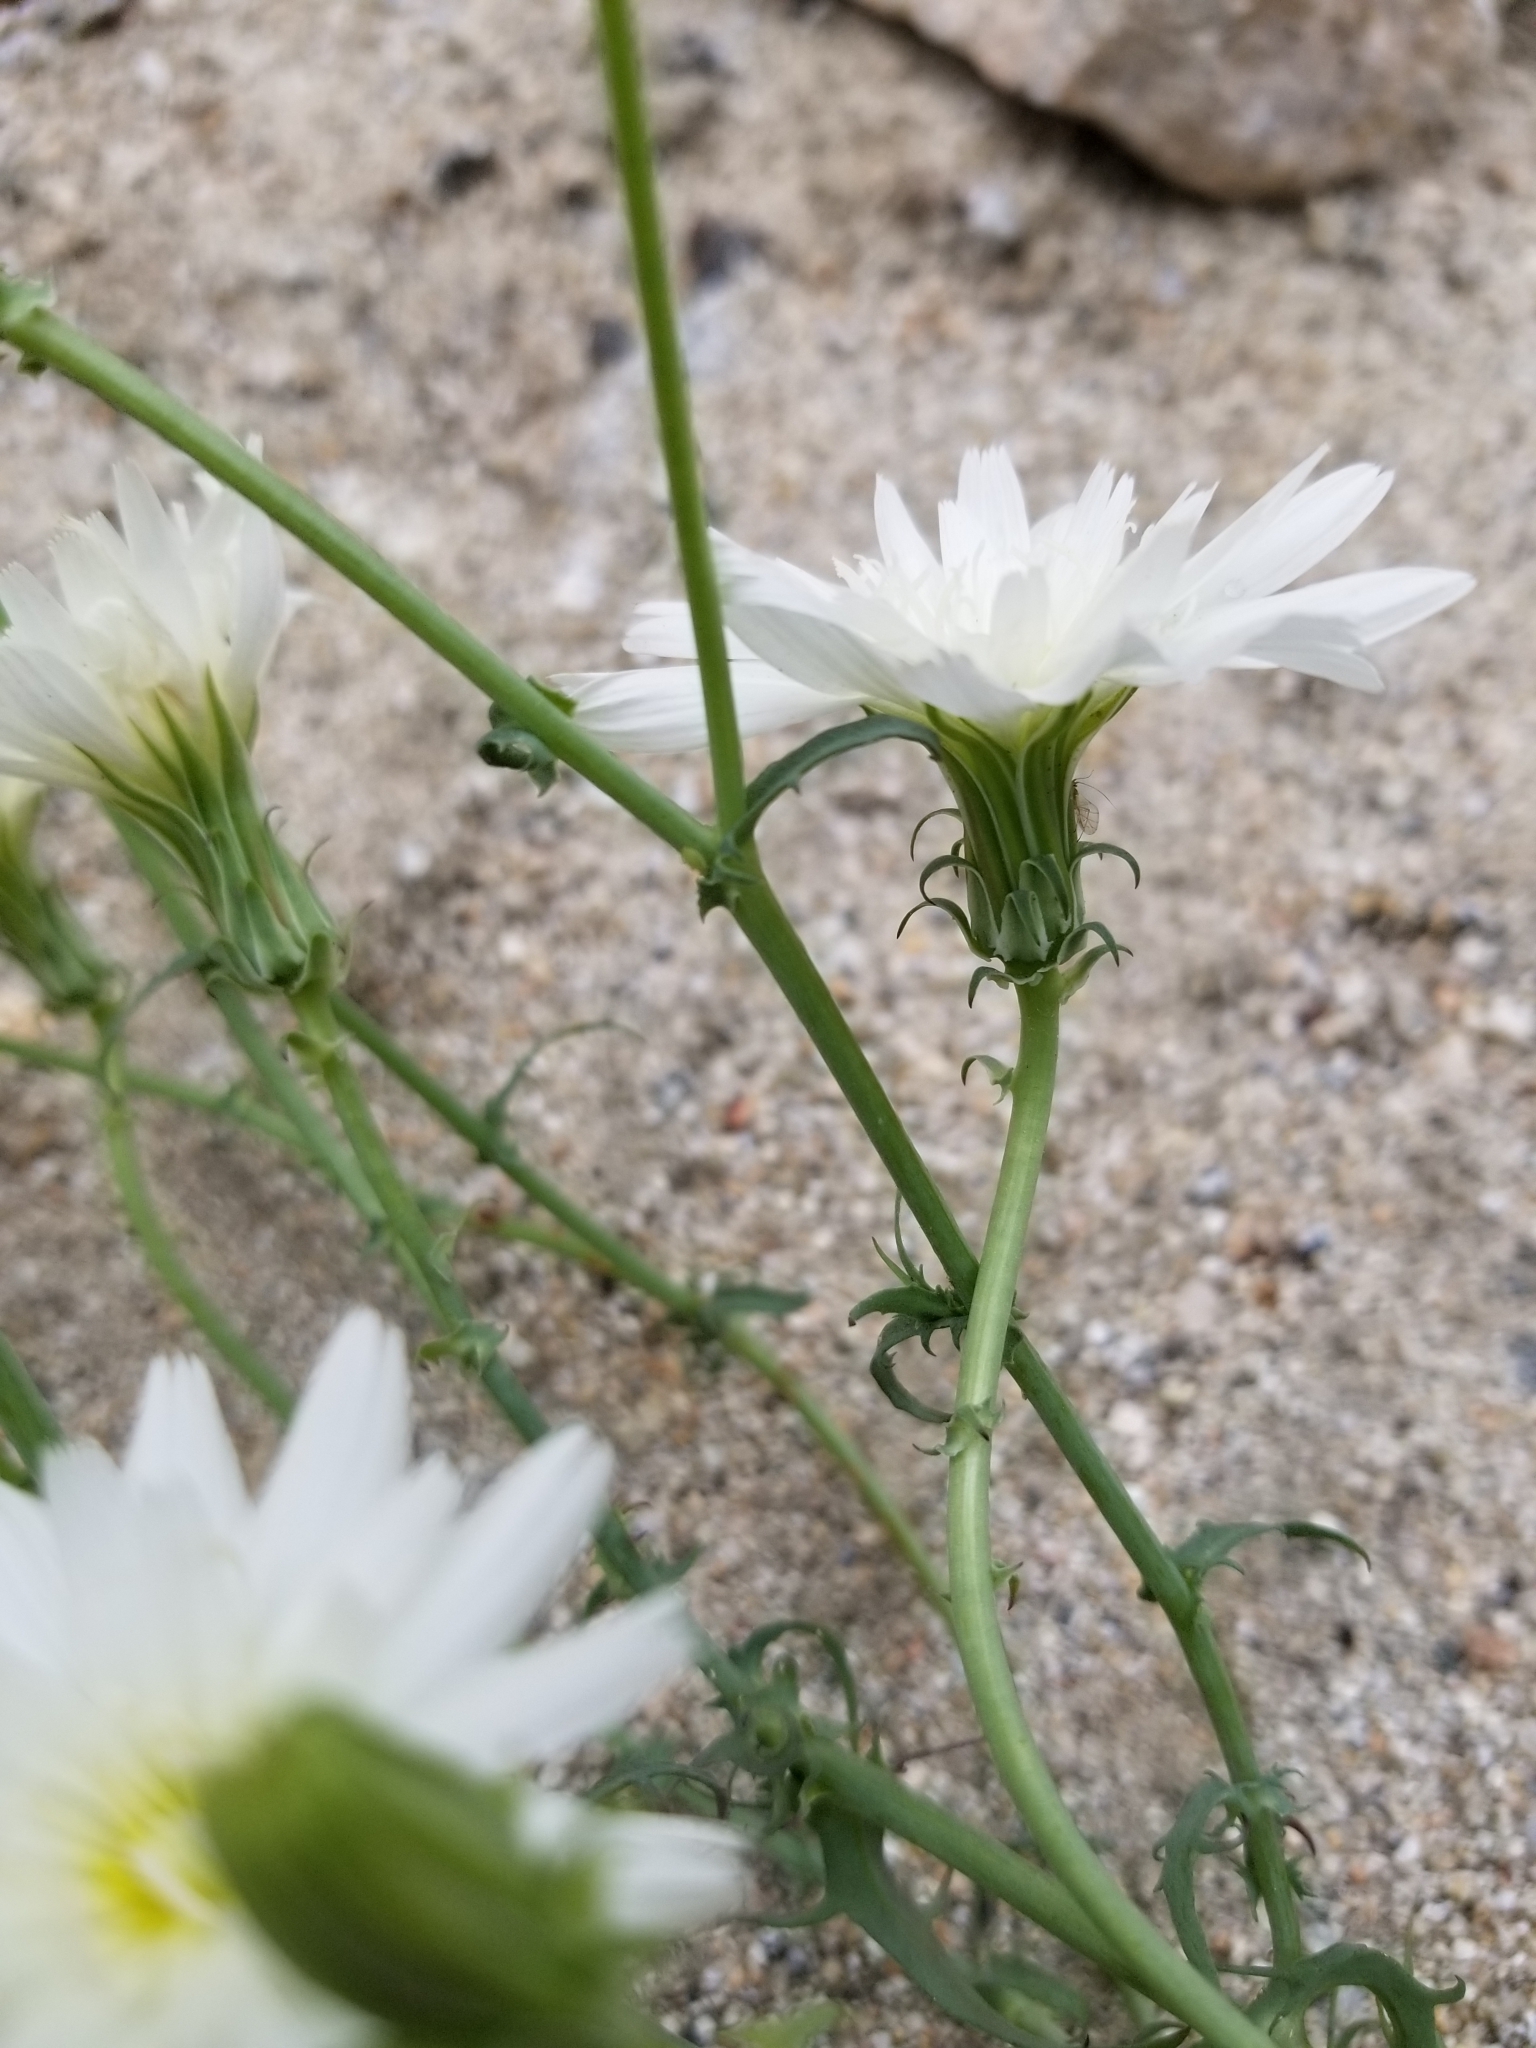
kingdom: Plantae
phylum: Tracheophyta
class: Magnoliopsida
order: Asterales
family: Asteraceae
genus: Rafinesquia
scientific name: Rafinesquia neomexicana
